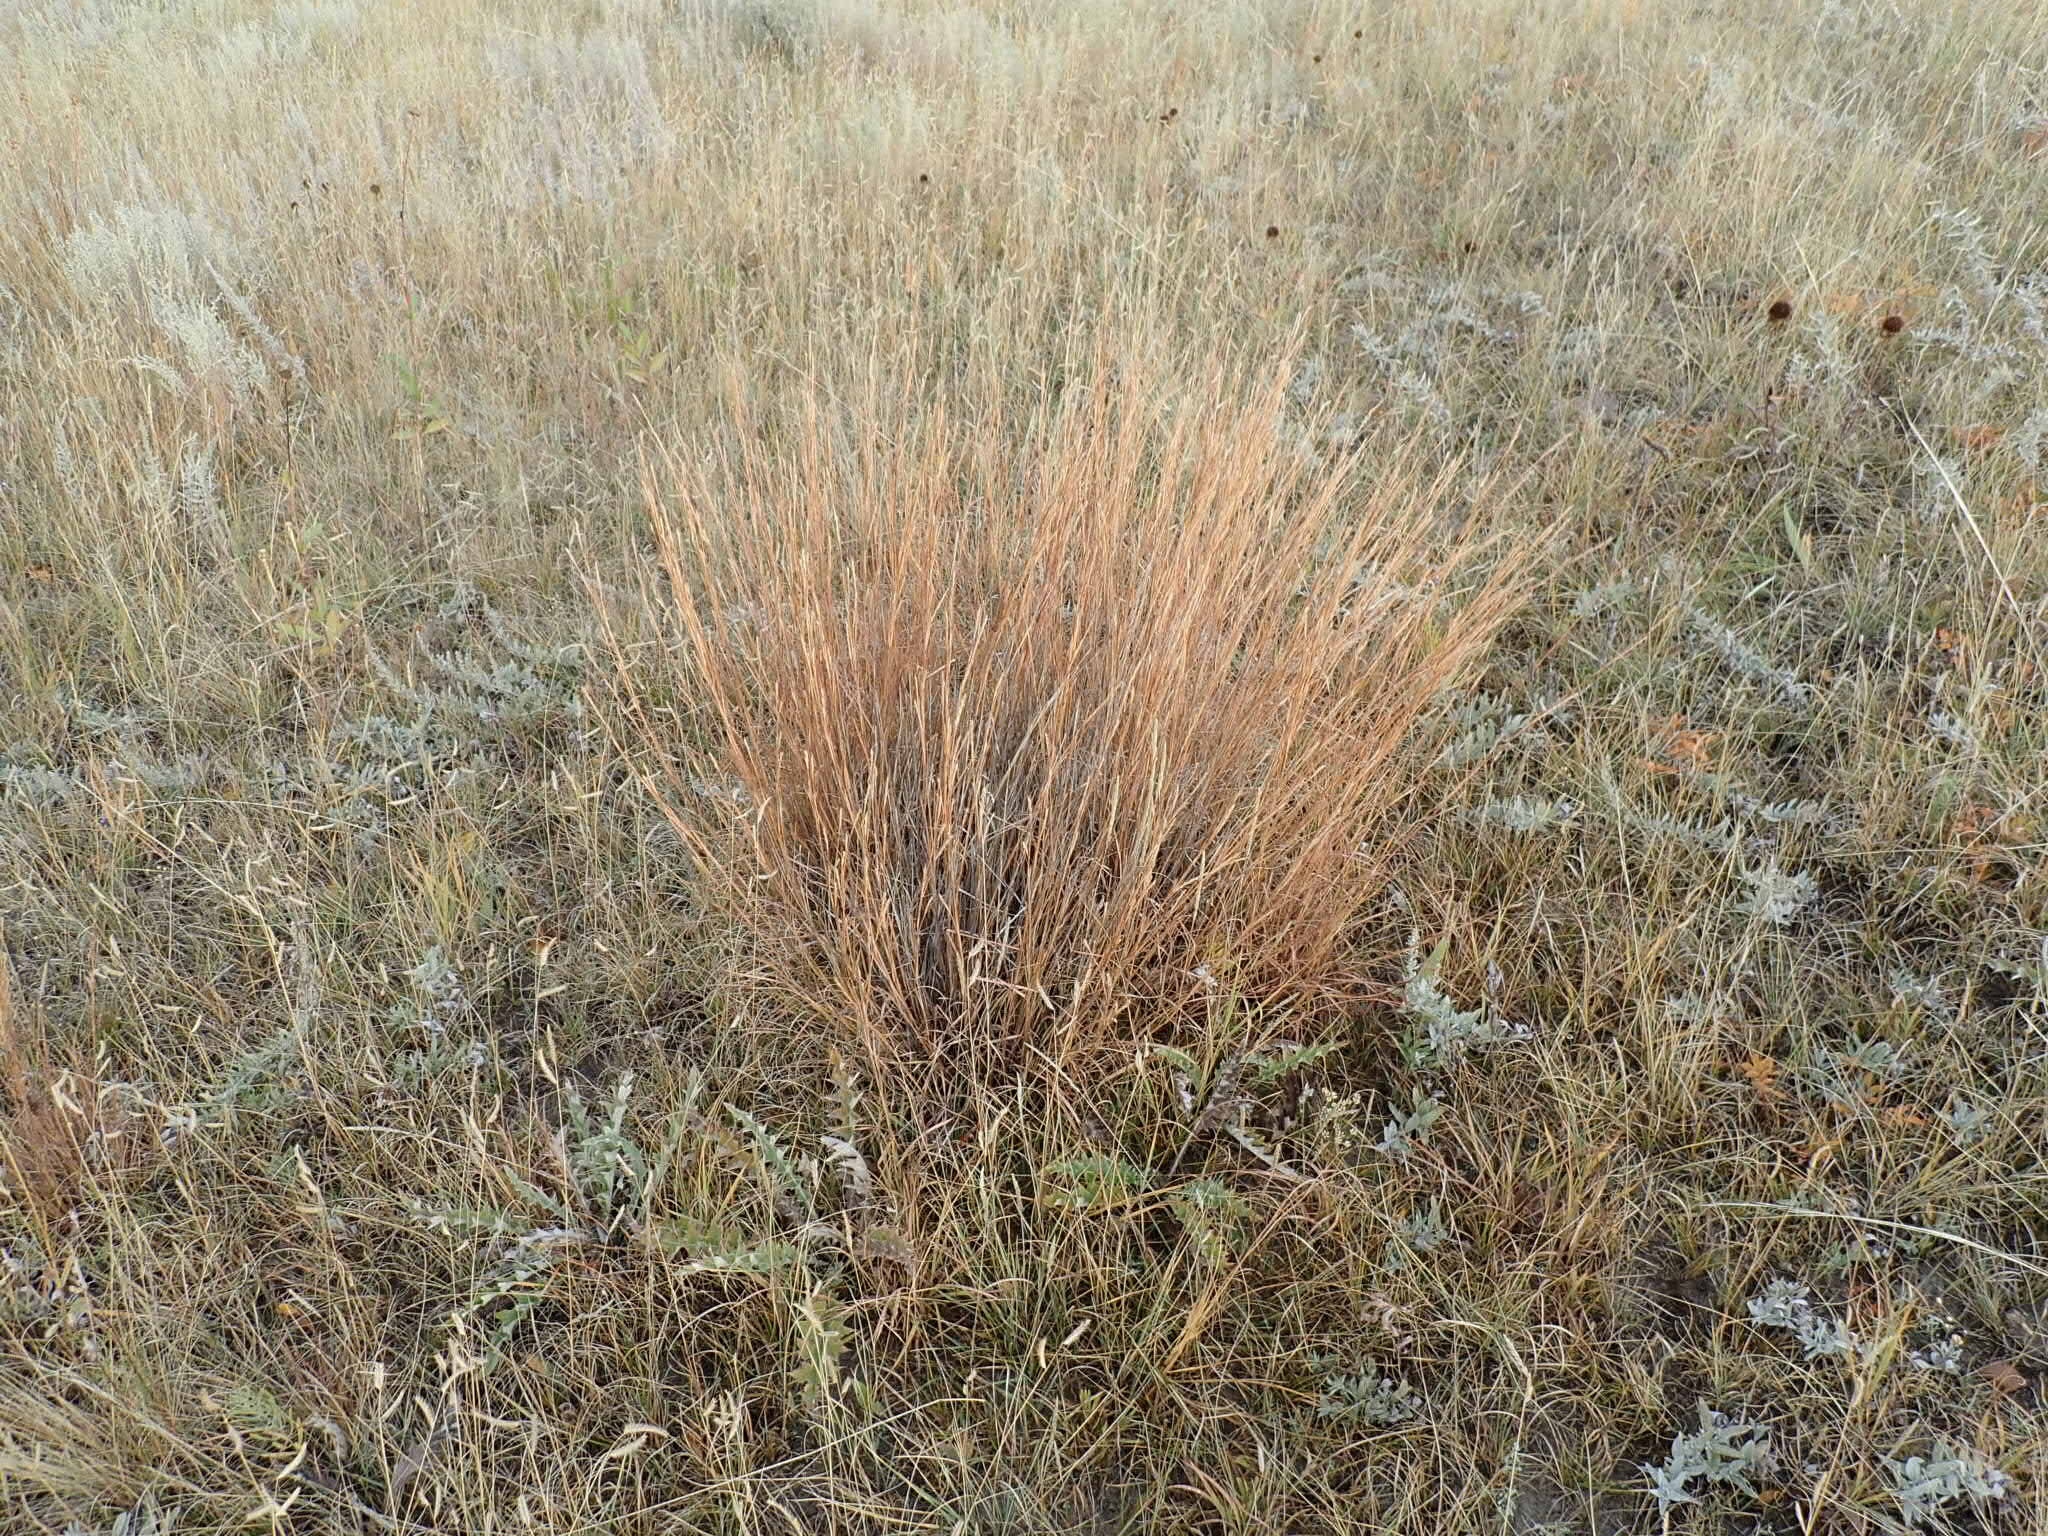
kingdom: Plantae
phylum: Tracheophyta
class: Liliopsida
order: Poales
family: Poaceae
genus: Schizachyrium
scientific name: Schizachyrium scoparium
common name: Little bluestem
